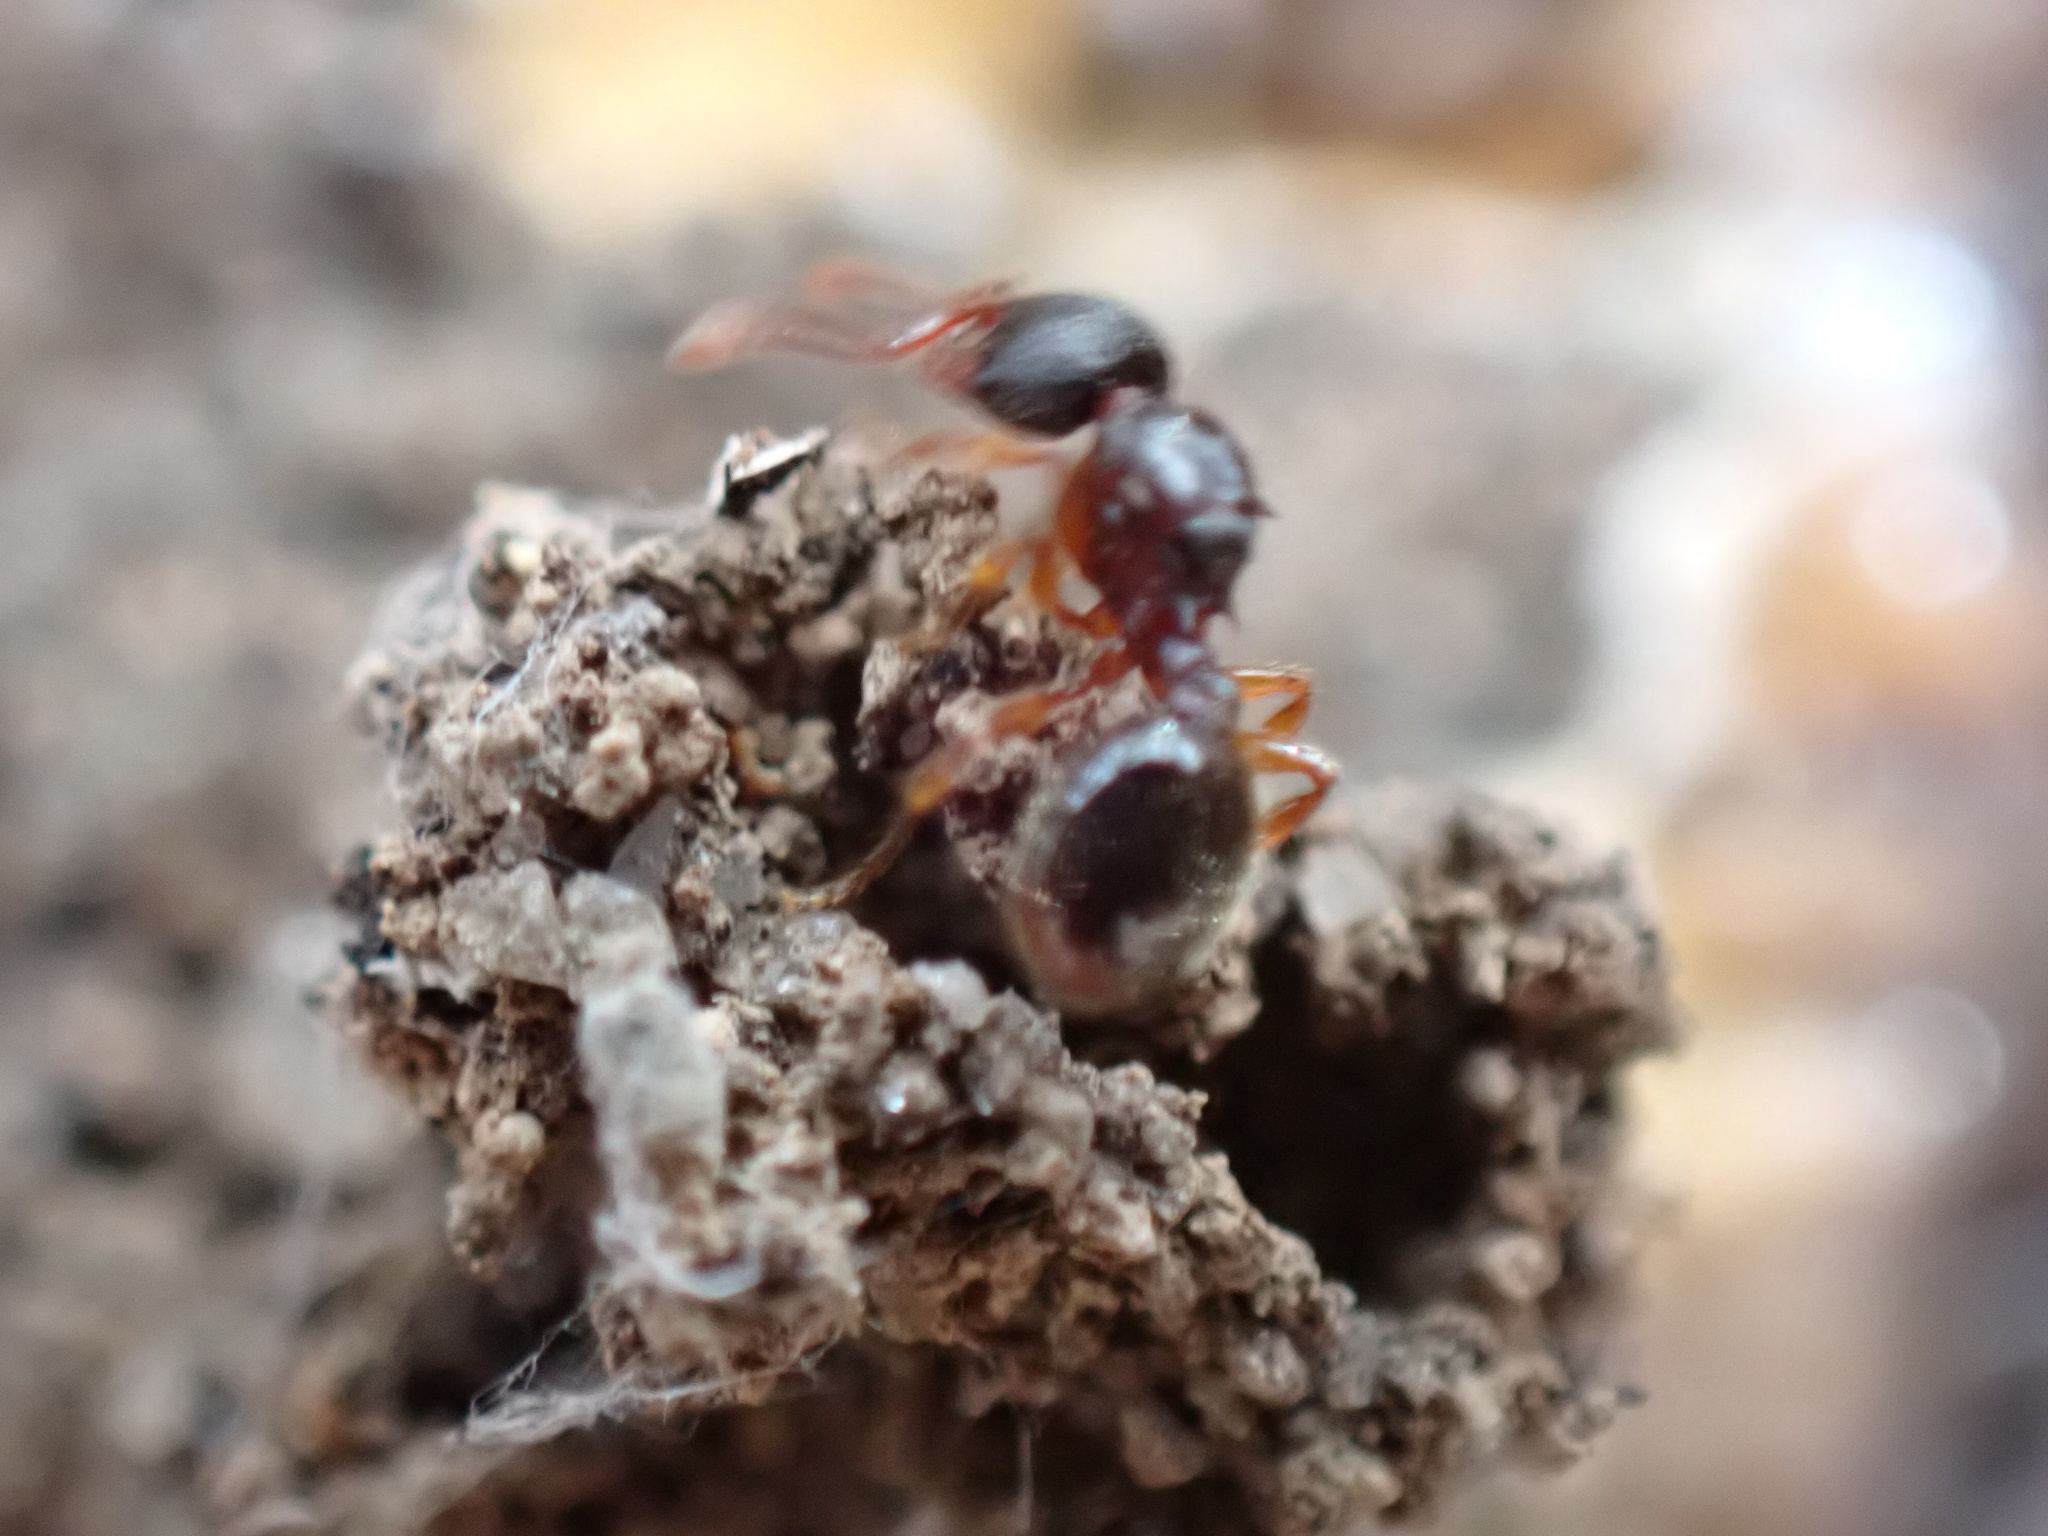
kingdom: Animalia
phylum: Arthropoda
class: Insecta
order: Hymenoptera
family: Formicidae
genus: Myrmecina
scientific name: Myrmecina americana
